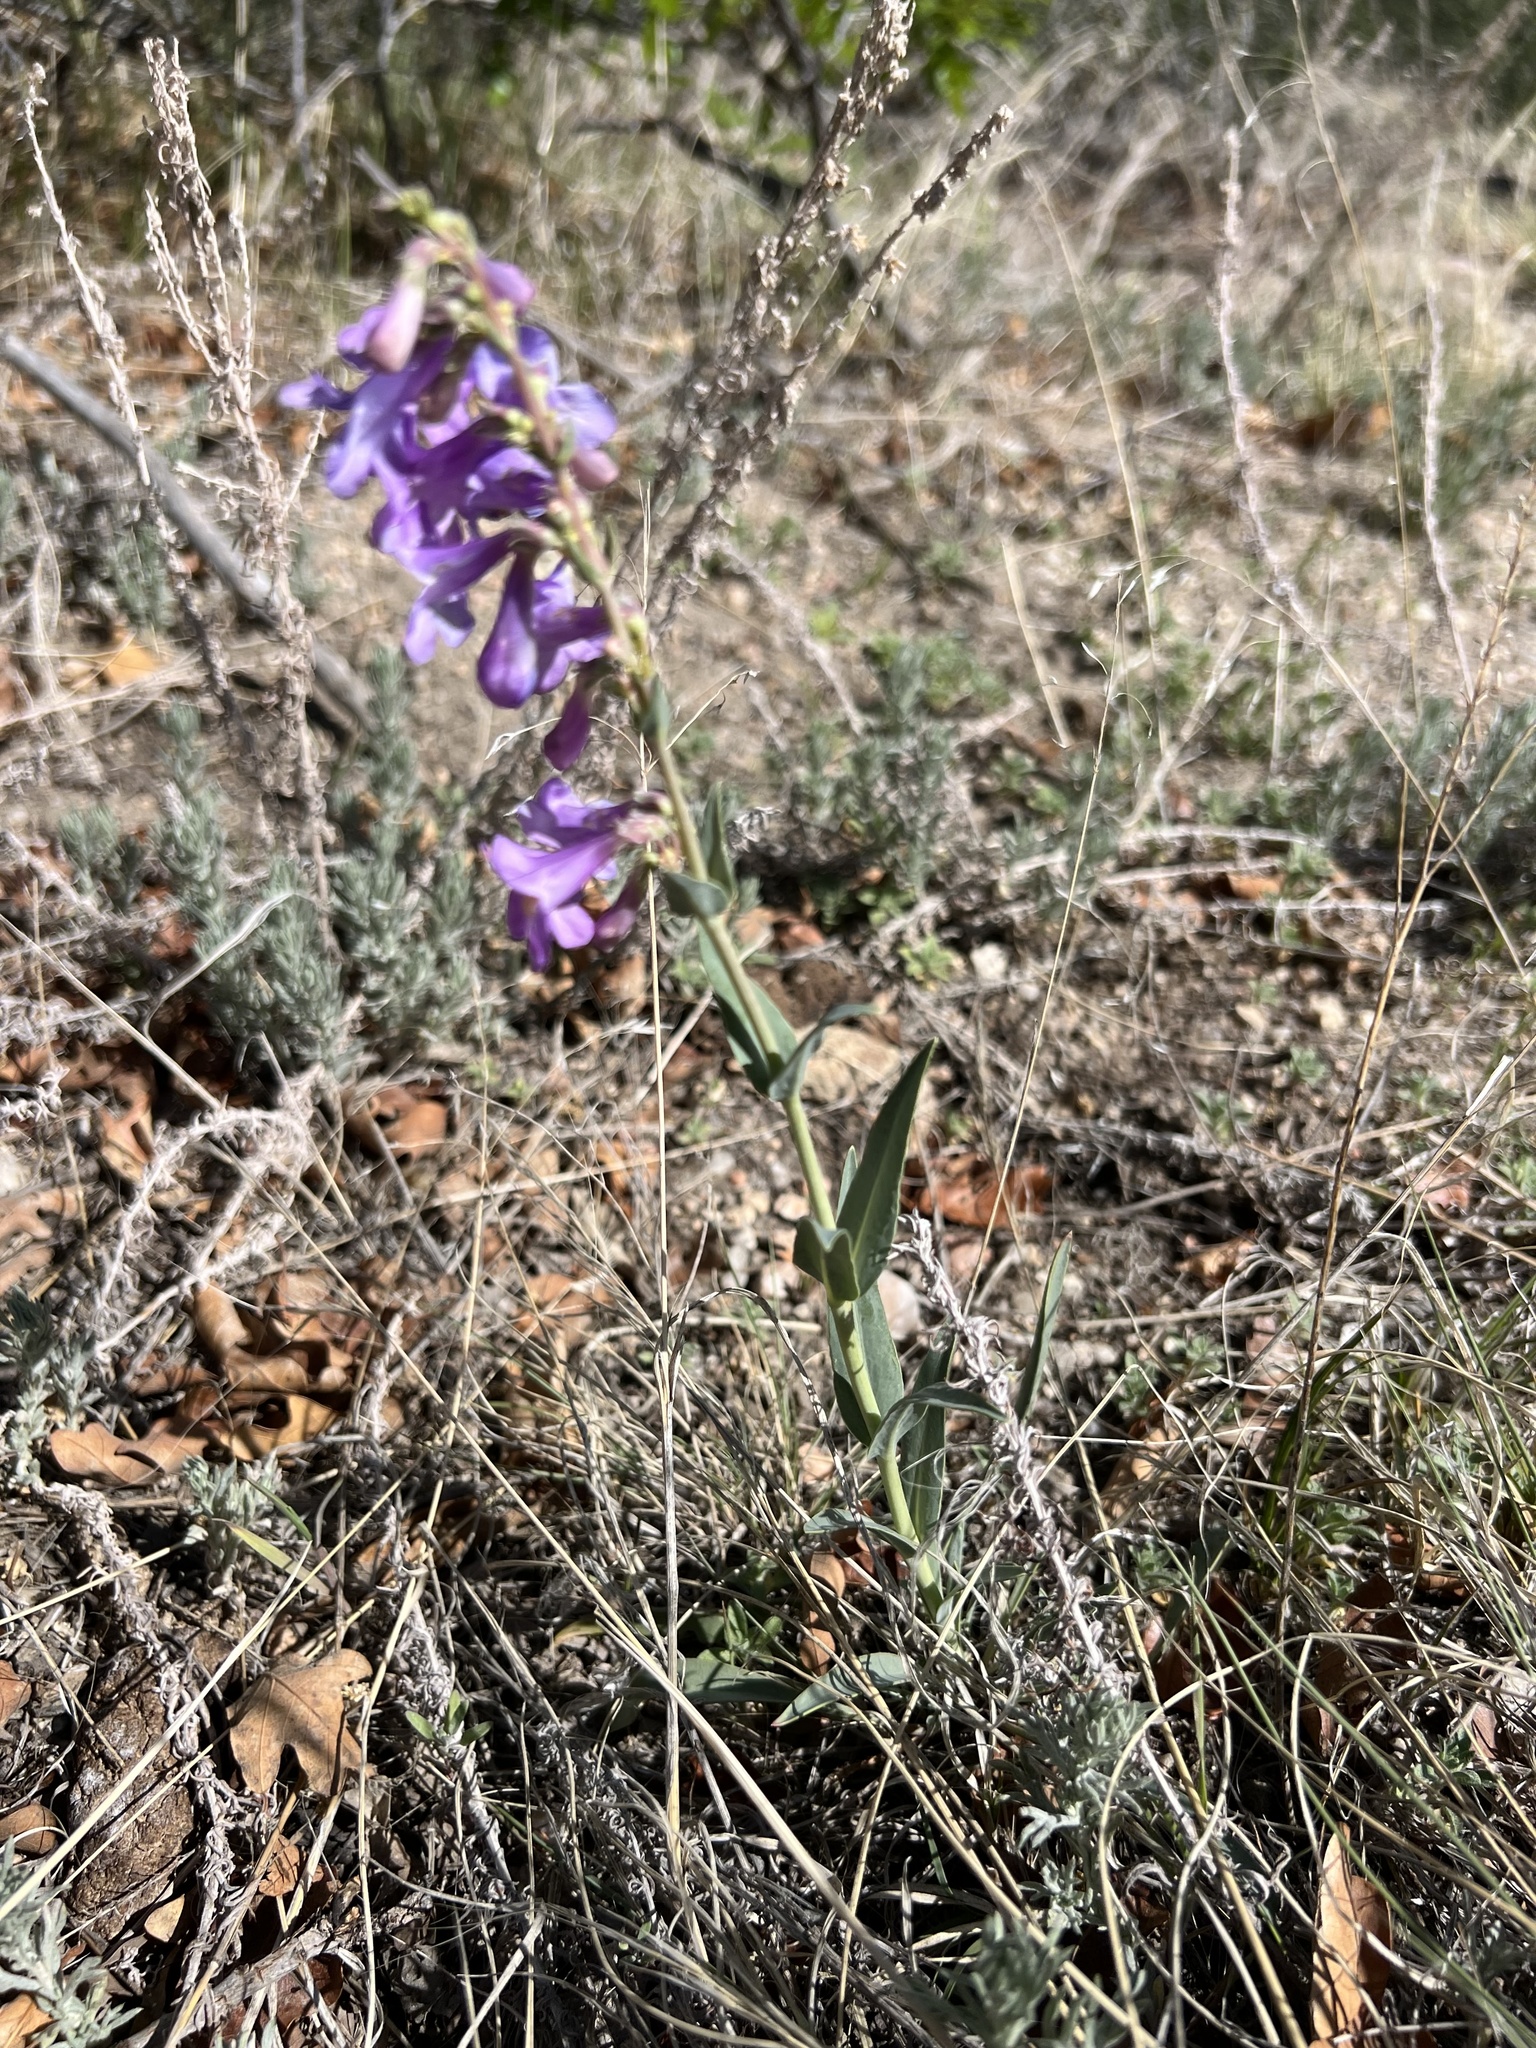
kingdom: Plantae
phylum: Tracheophyta
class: Magnoliopsida
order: Lamiales
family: Plantaginaceae
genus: Penstemon
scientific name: Penstemon secundiflorus
